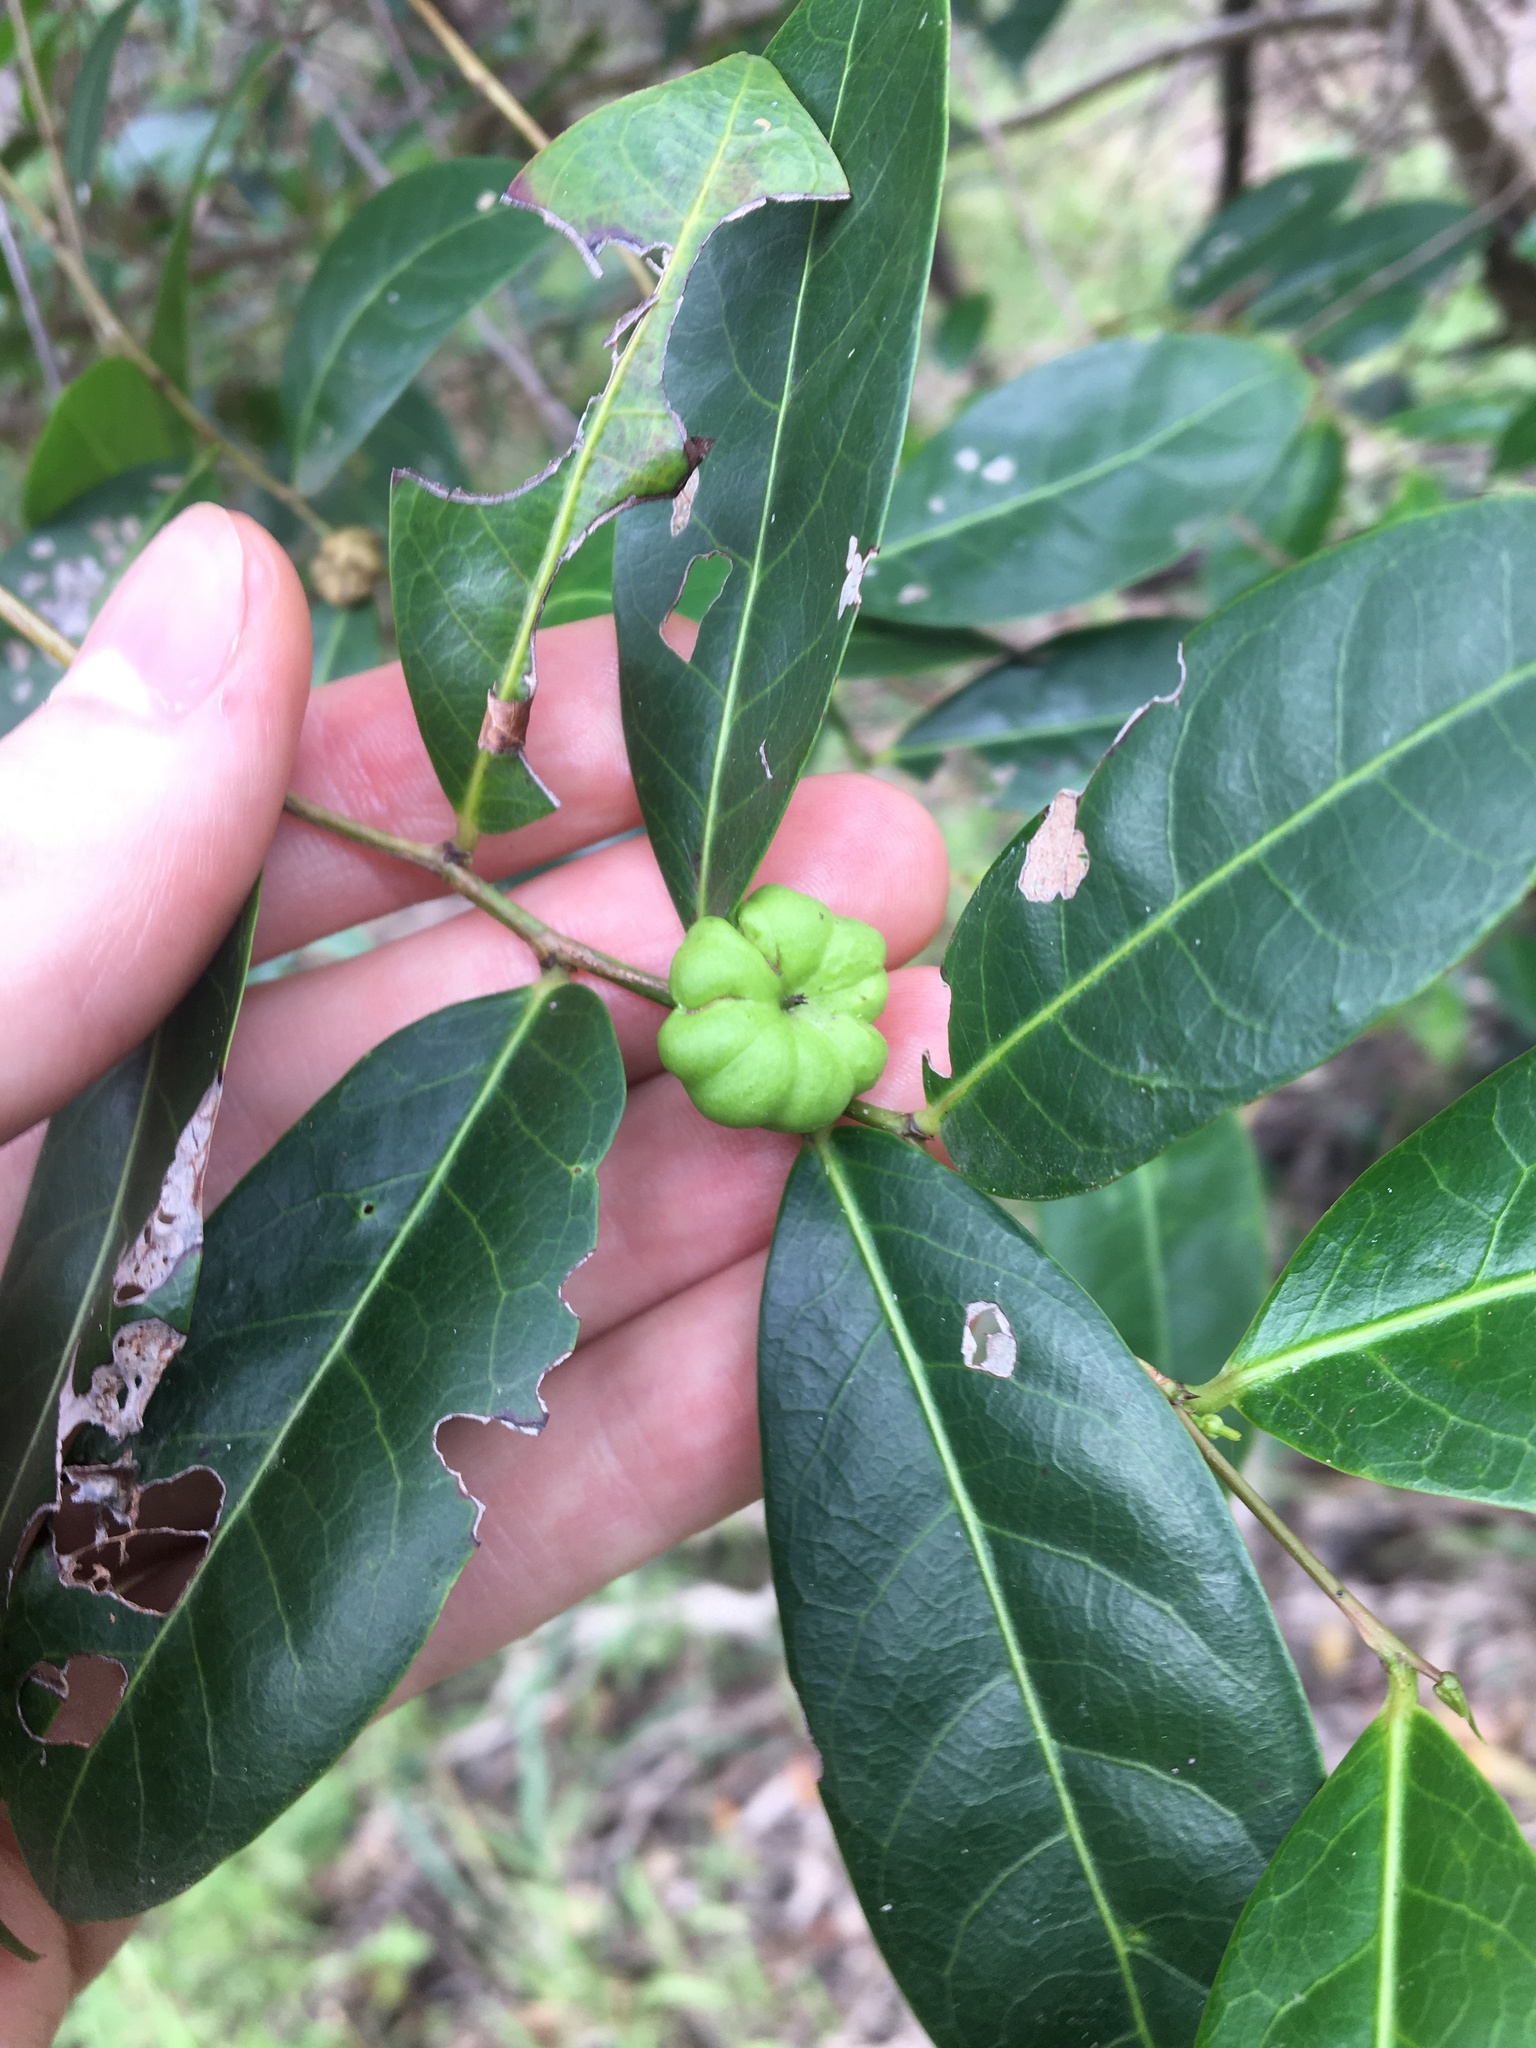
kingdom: Plantae
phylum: Tracheophyta
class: Magnoliopsida
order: Malpighiales
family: Phyllanthaceae
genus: Glochidion
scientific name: Glochidion ferdinandi
